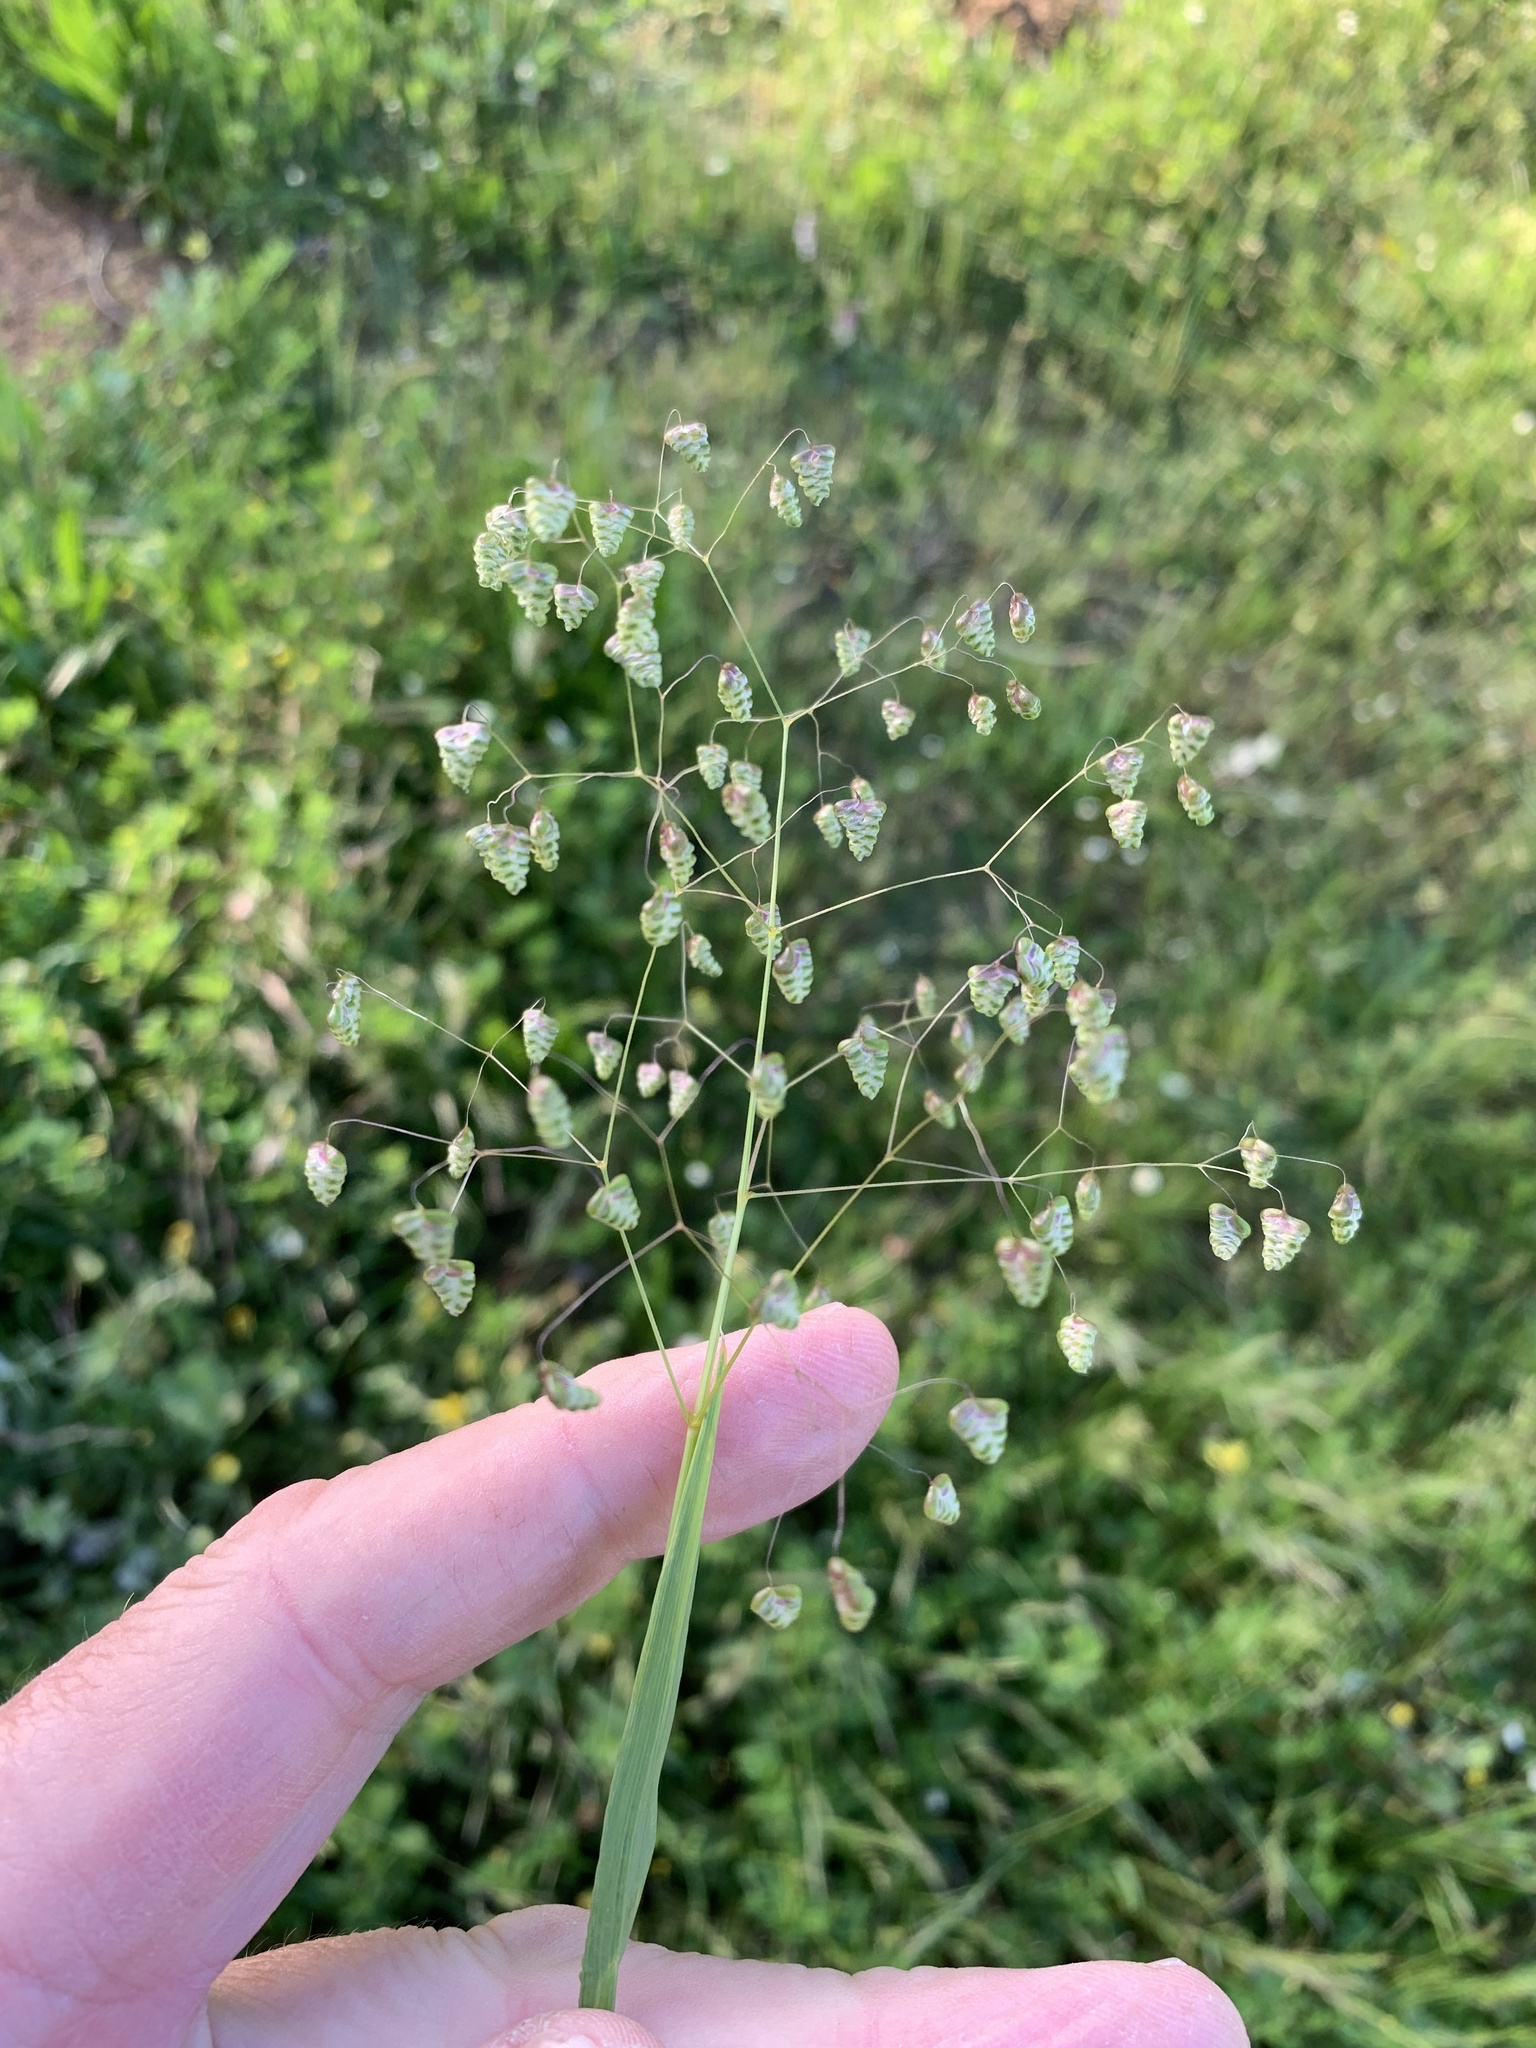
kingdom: Plantae
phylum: Tracheophyta
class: Liliopsida
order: Poales
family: Poaceae
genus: Briza
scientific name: Briza minor
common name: Lesser quaking-grass
